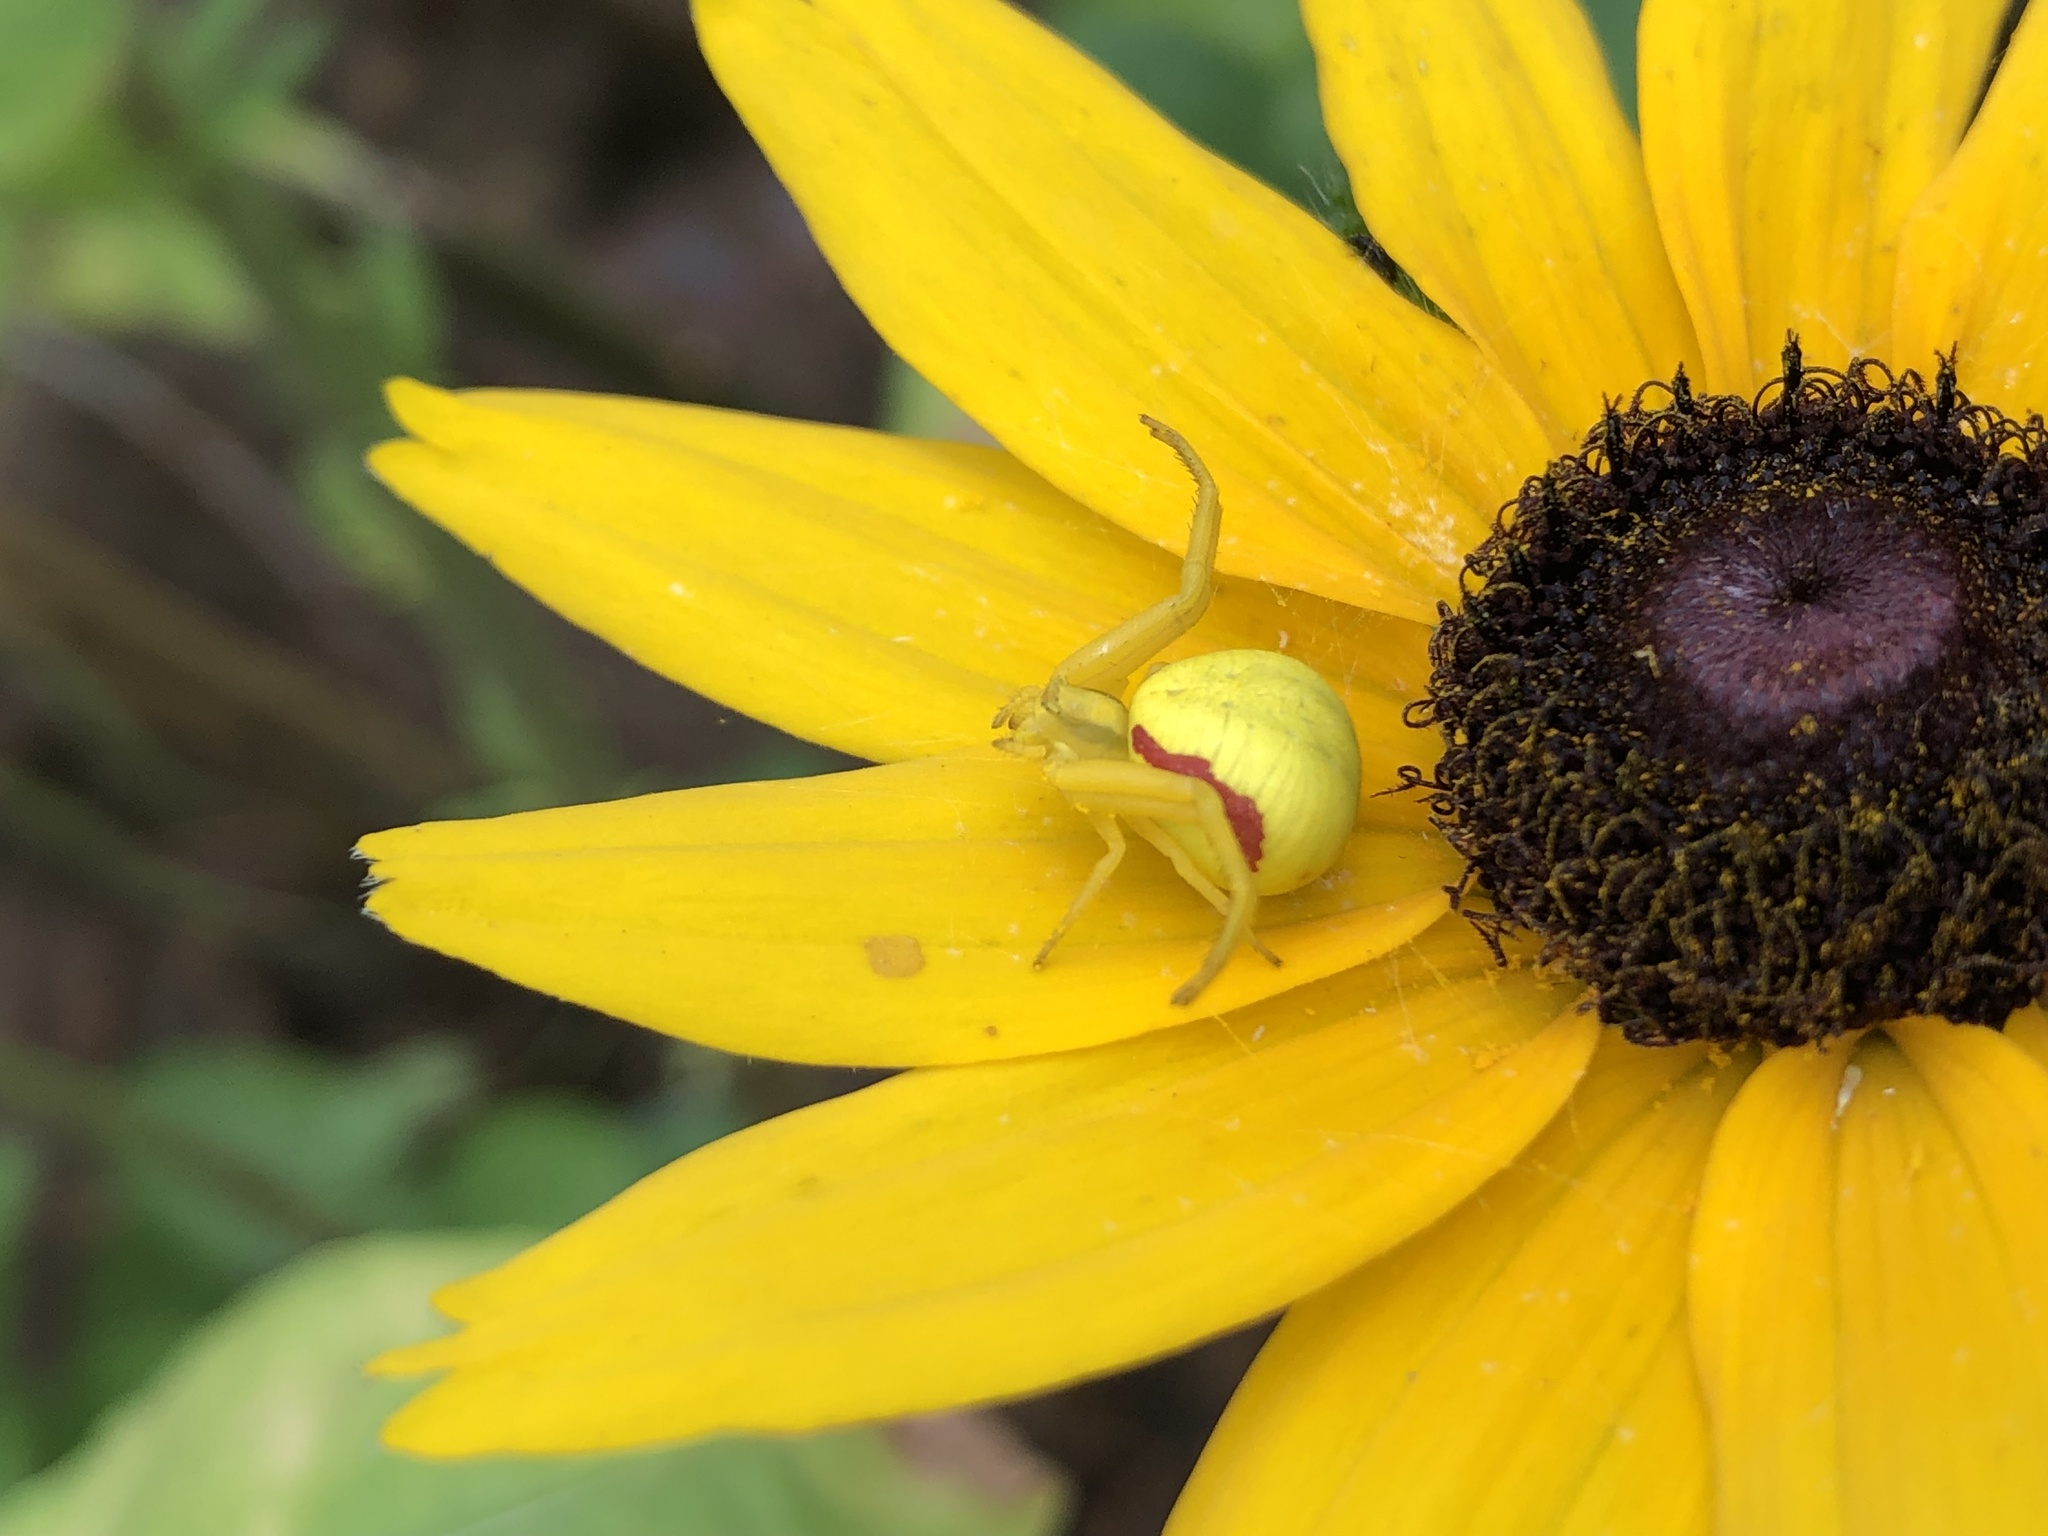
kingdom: Animalia
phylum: Arthropoda
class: Arachnida
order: Araneae
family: Thomisidae
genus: Misumena
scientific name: Misumena vatia
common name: Goldenrod crab spider
